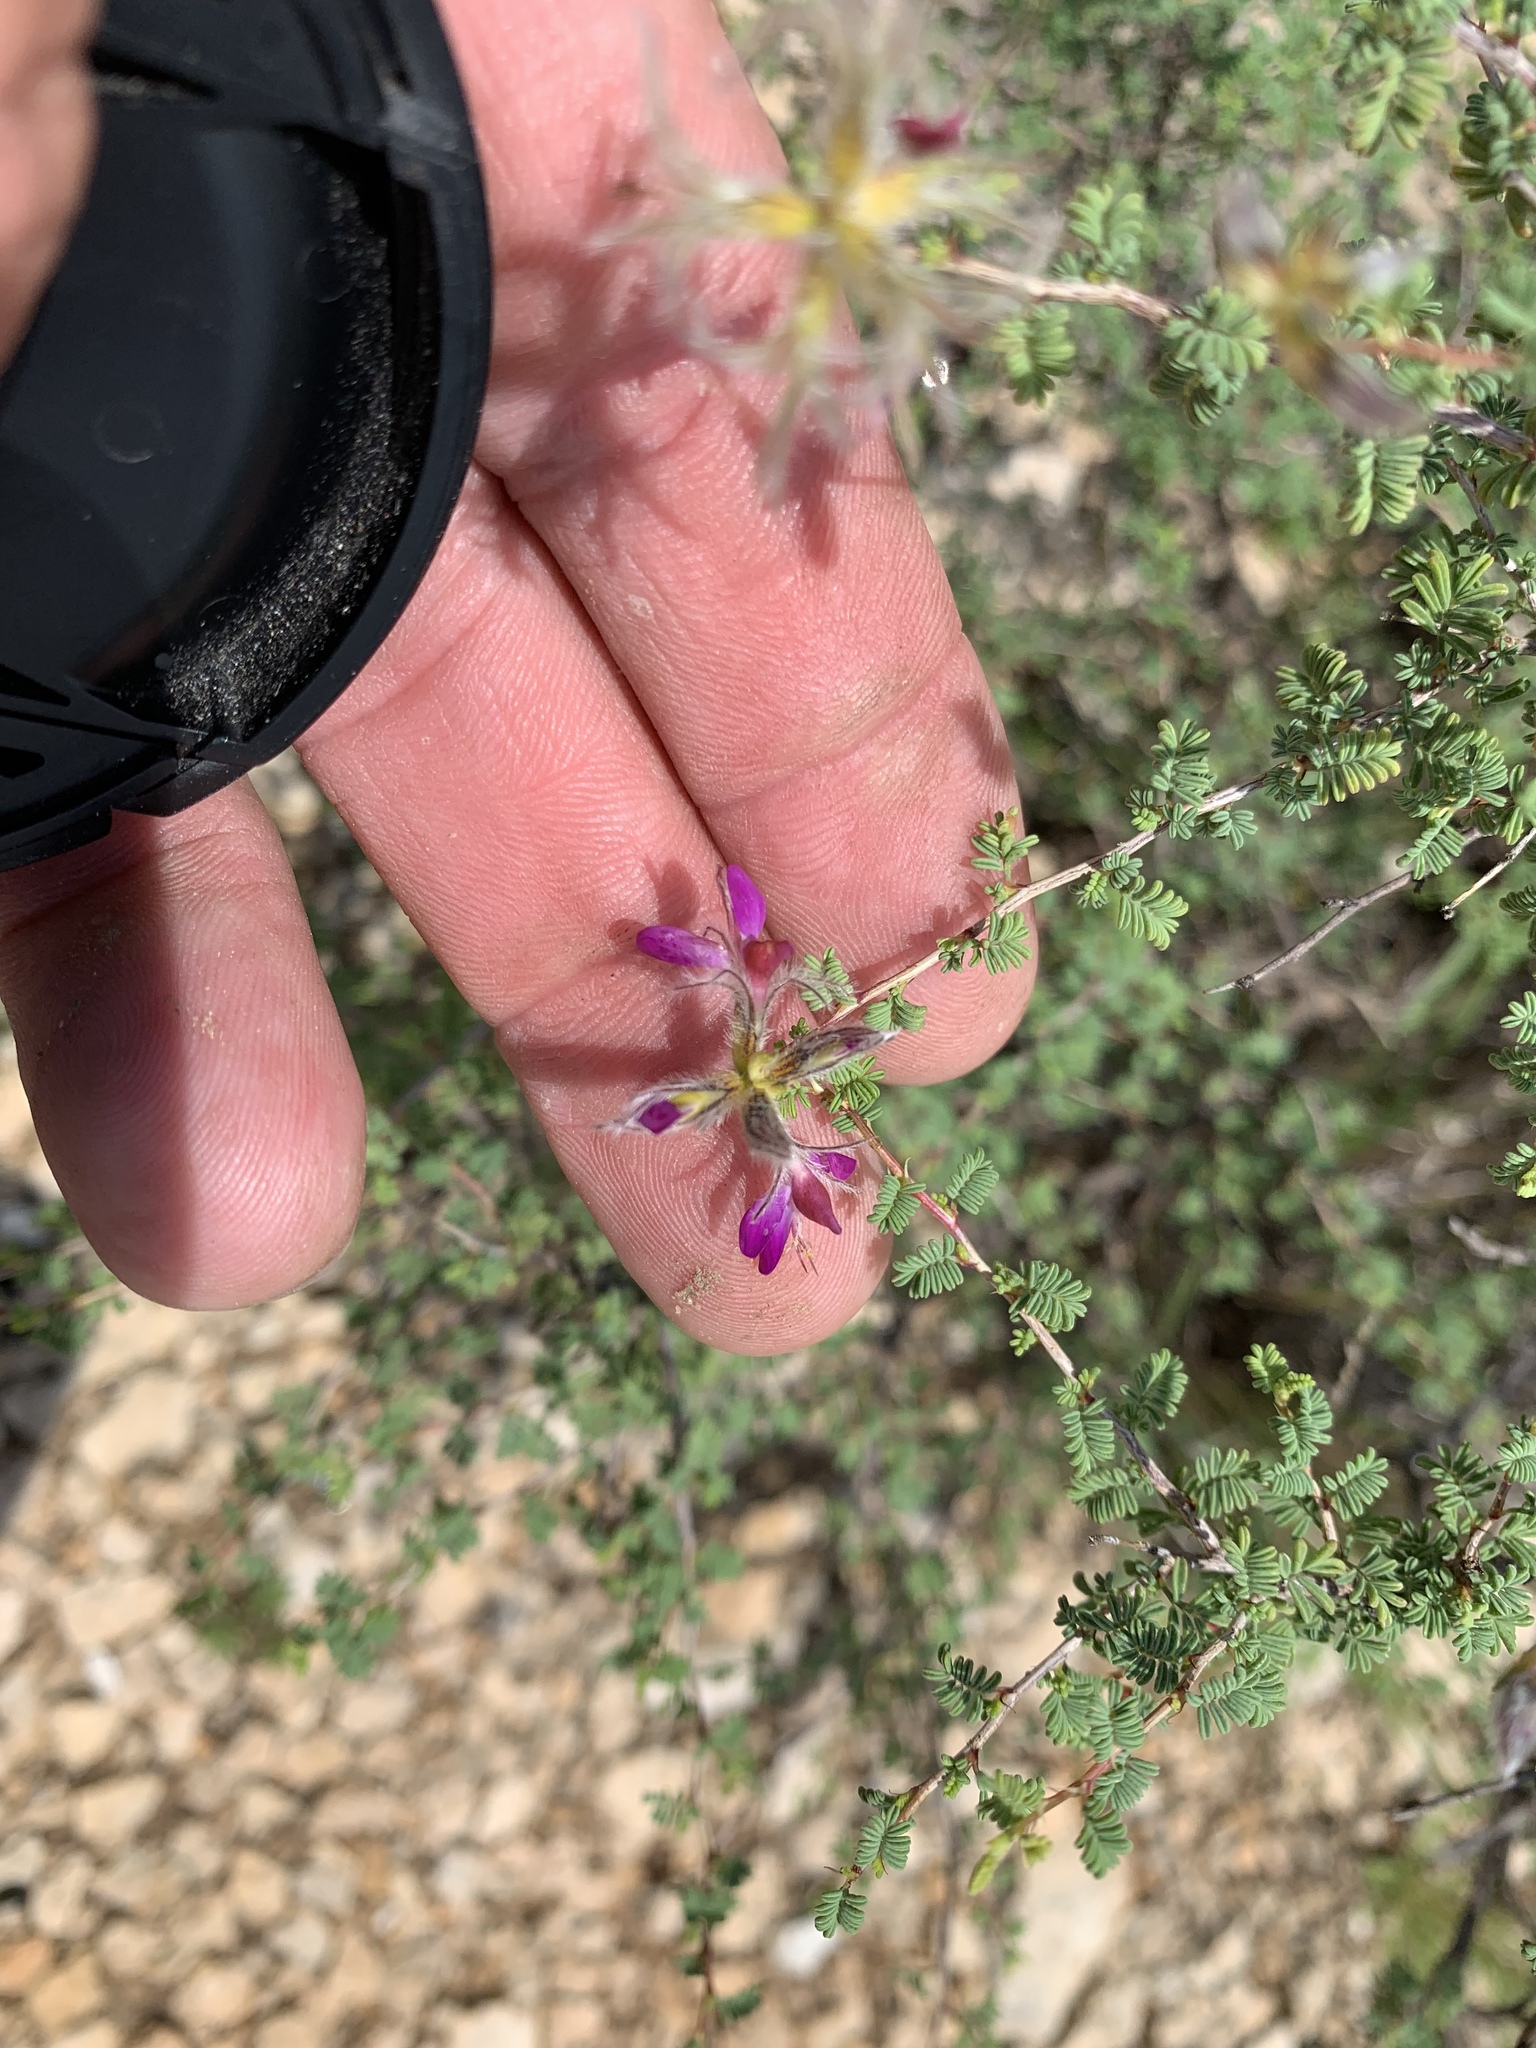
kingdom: Plantae
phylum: Tracheophyta
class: Magnoliopsida
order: Fabales
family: Fabaceae
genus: Dalea
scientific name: Dalea formosa
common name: Feather-plume dalea
